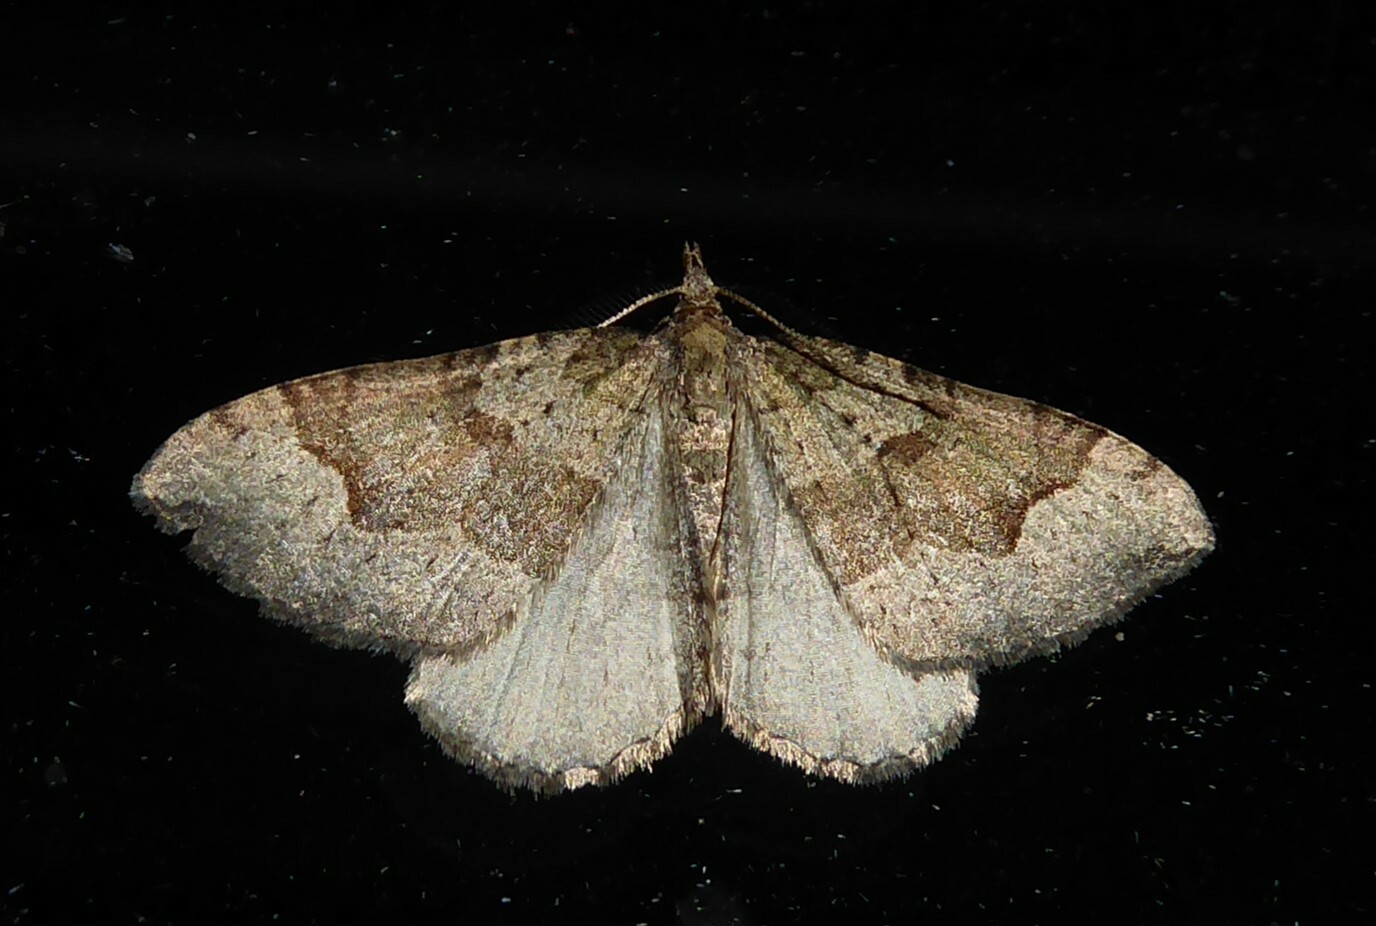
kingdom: Animalia
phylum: Arthropoda
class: Insecta
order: Lepidoptera
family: Geometridae
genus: Epyaxa
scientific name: Epyaxa rosearia
